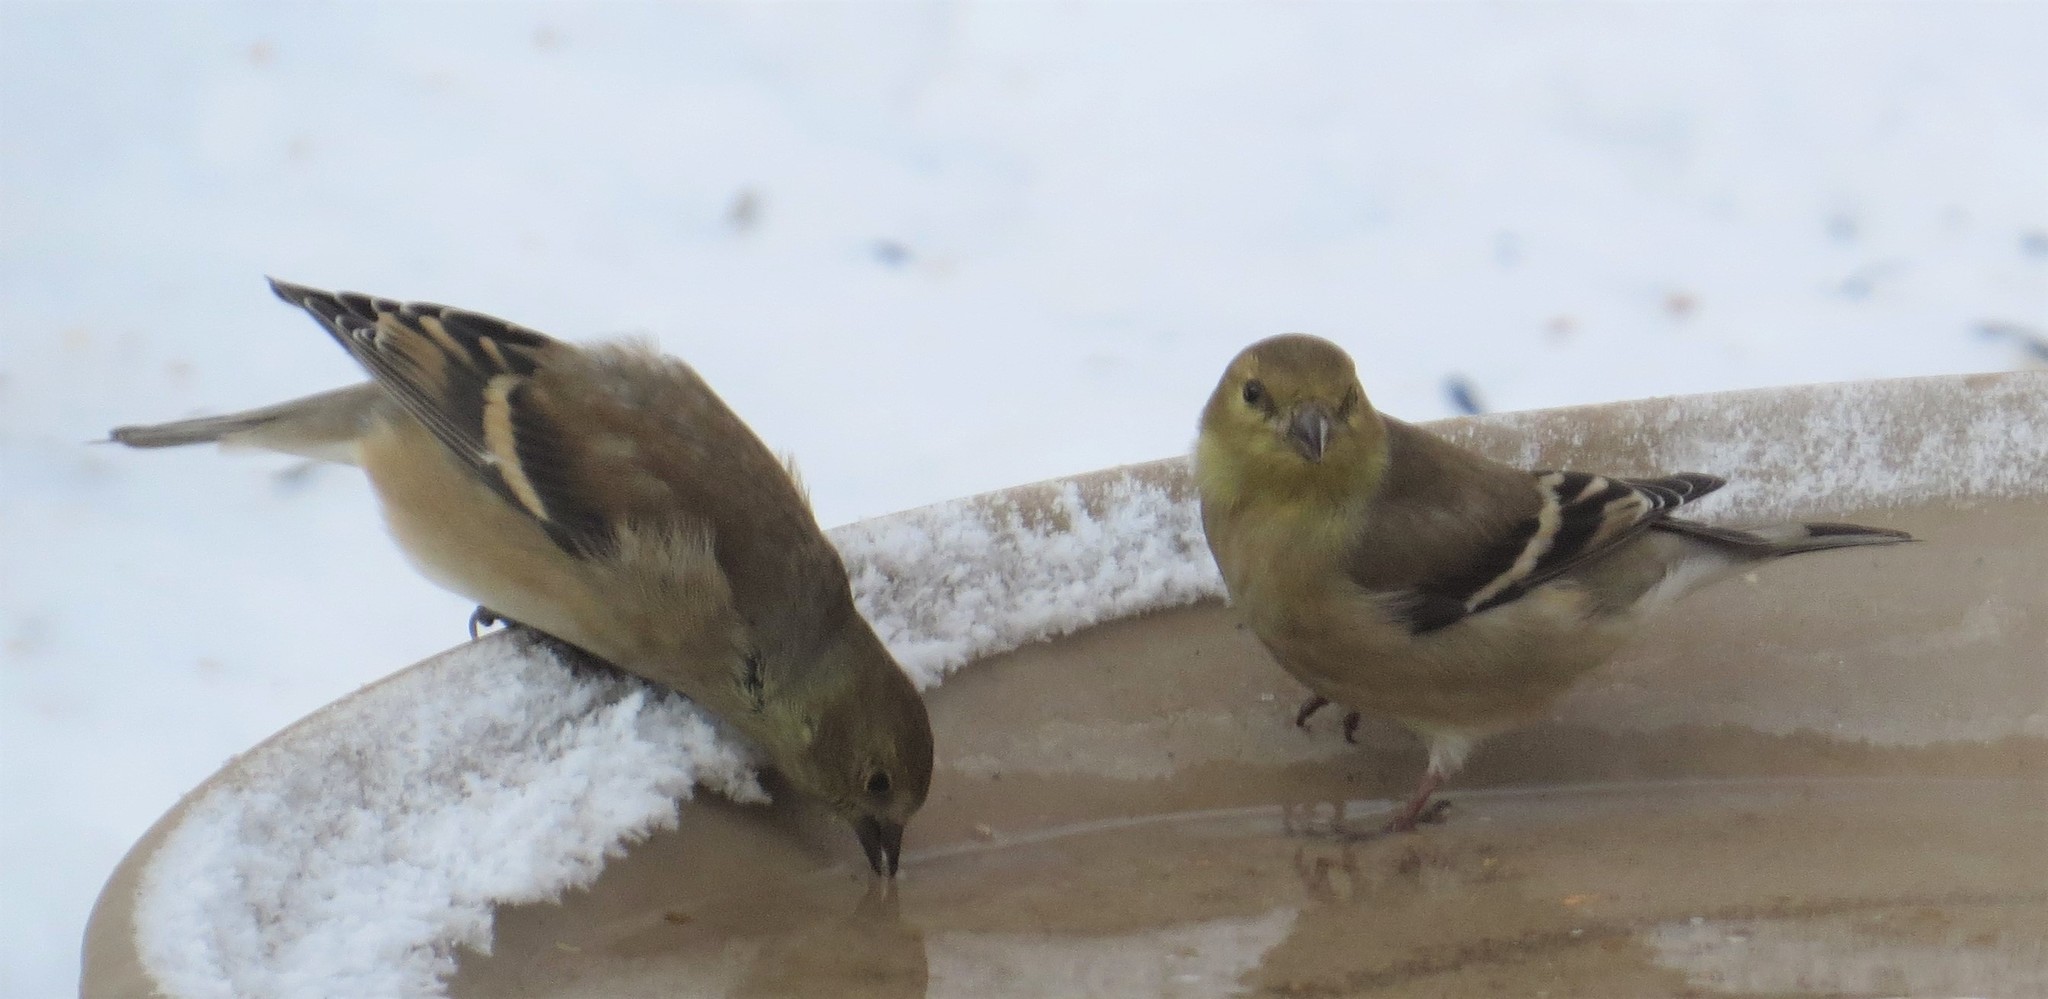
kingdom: Animalia
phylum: Chordata
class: Aves
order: Passeriformes
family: Fringillidae
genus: Spinus
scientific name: Spinus tristis
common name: American goldfinch
